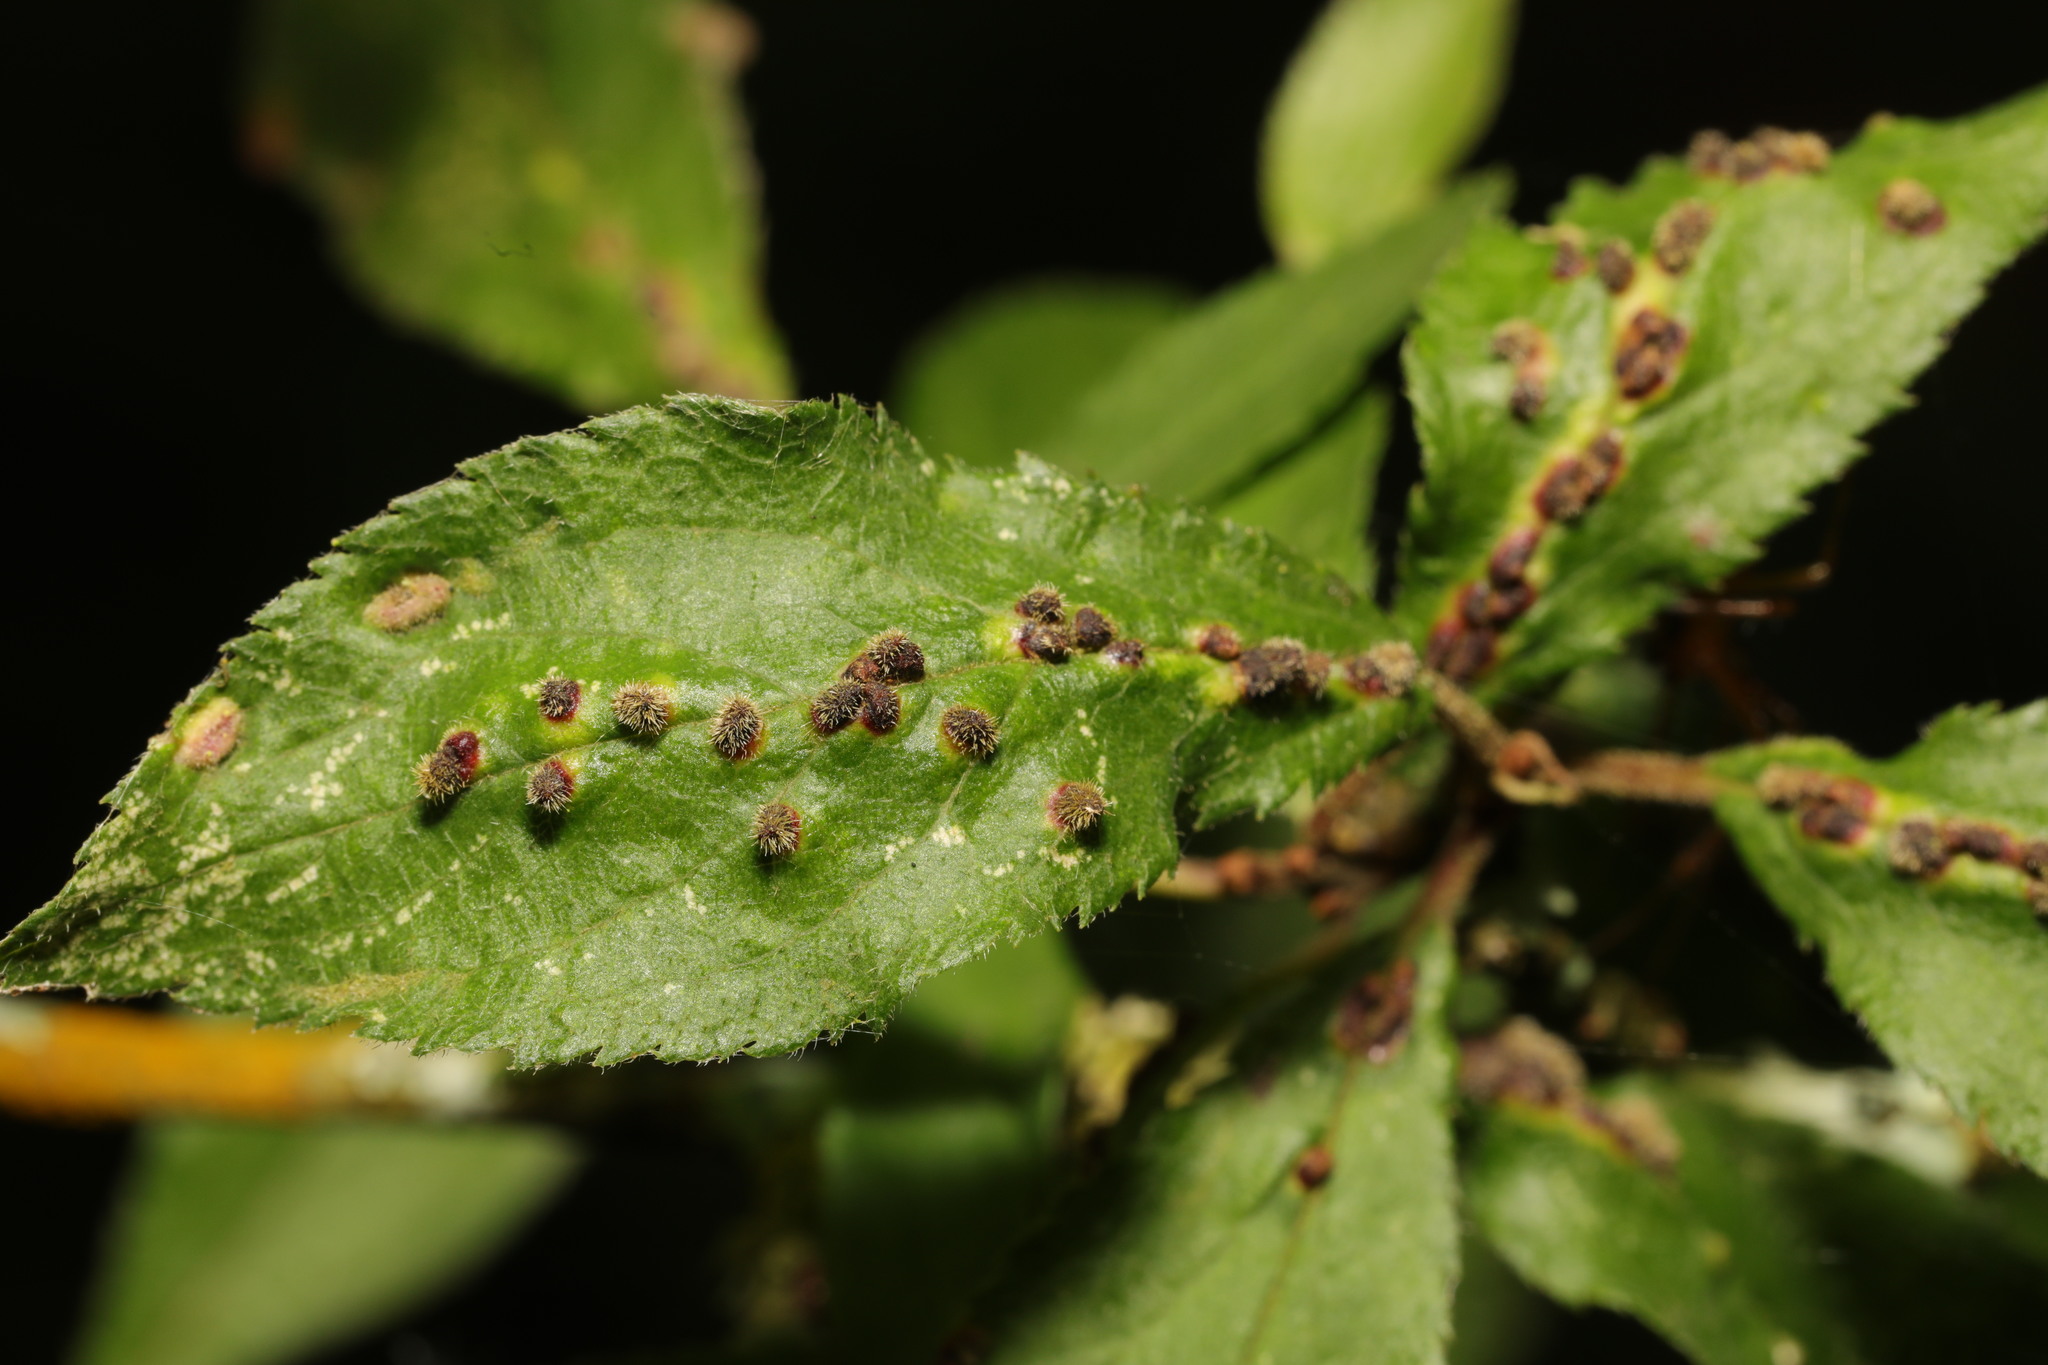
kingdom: Animalia
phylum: Arthropoda
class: Arachnida
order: Trombidiformes
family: Eriophyidae
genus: Eriophyes
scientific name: Eriophyes homophyllus
